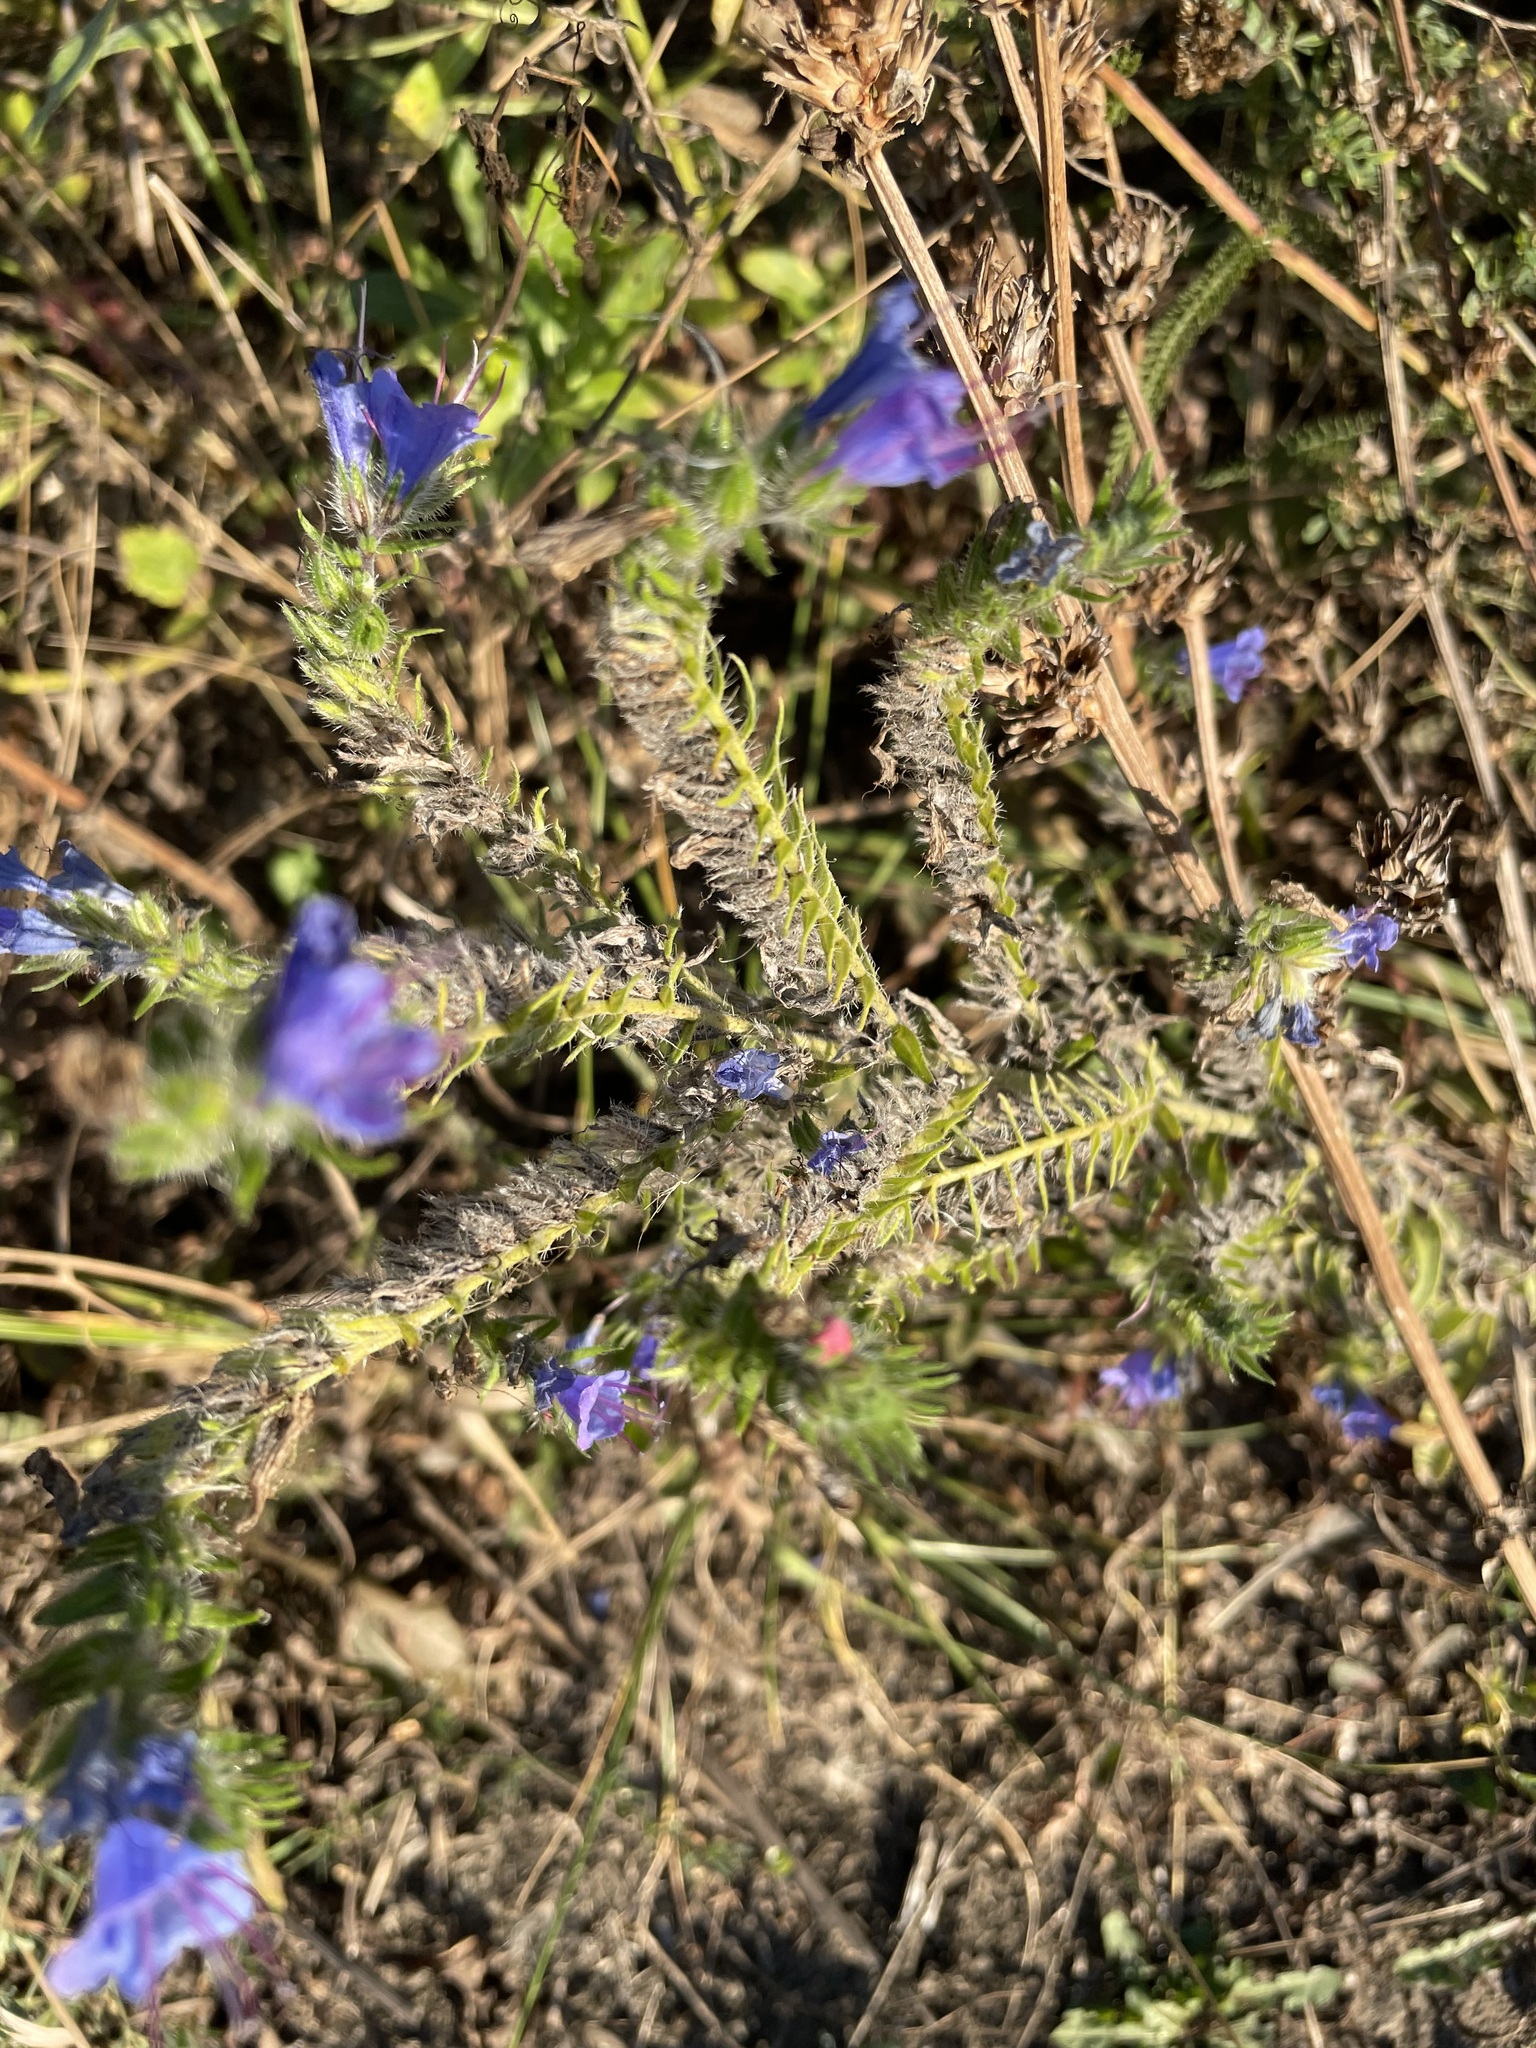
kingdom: Plantae
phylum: Tracheophyta
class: Magnoliopsida
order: Boraginales
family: Boraginaceae
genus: Echium
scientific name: Echium vulgare
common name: Common viper's bugloss
